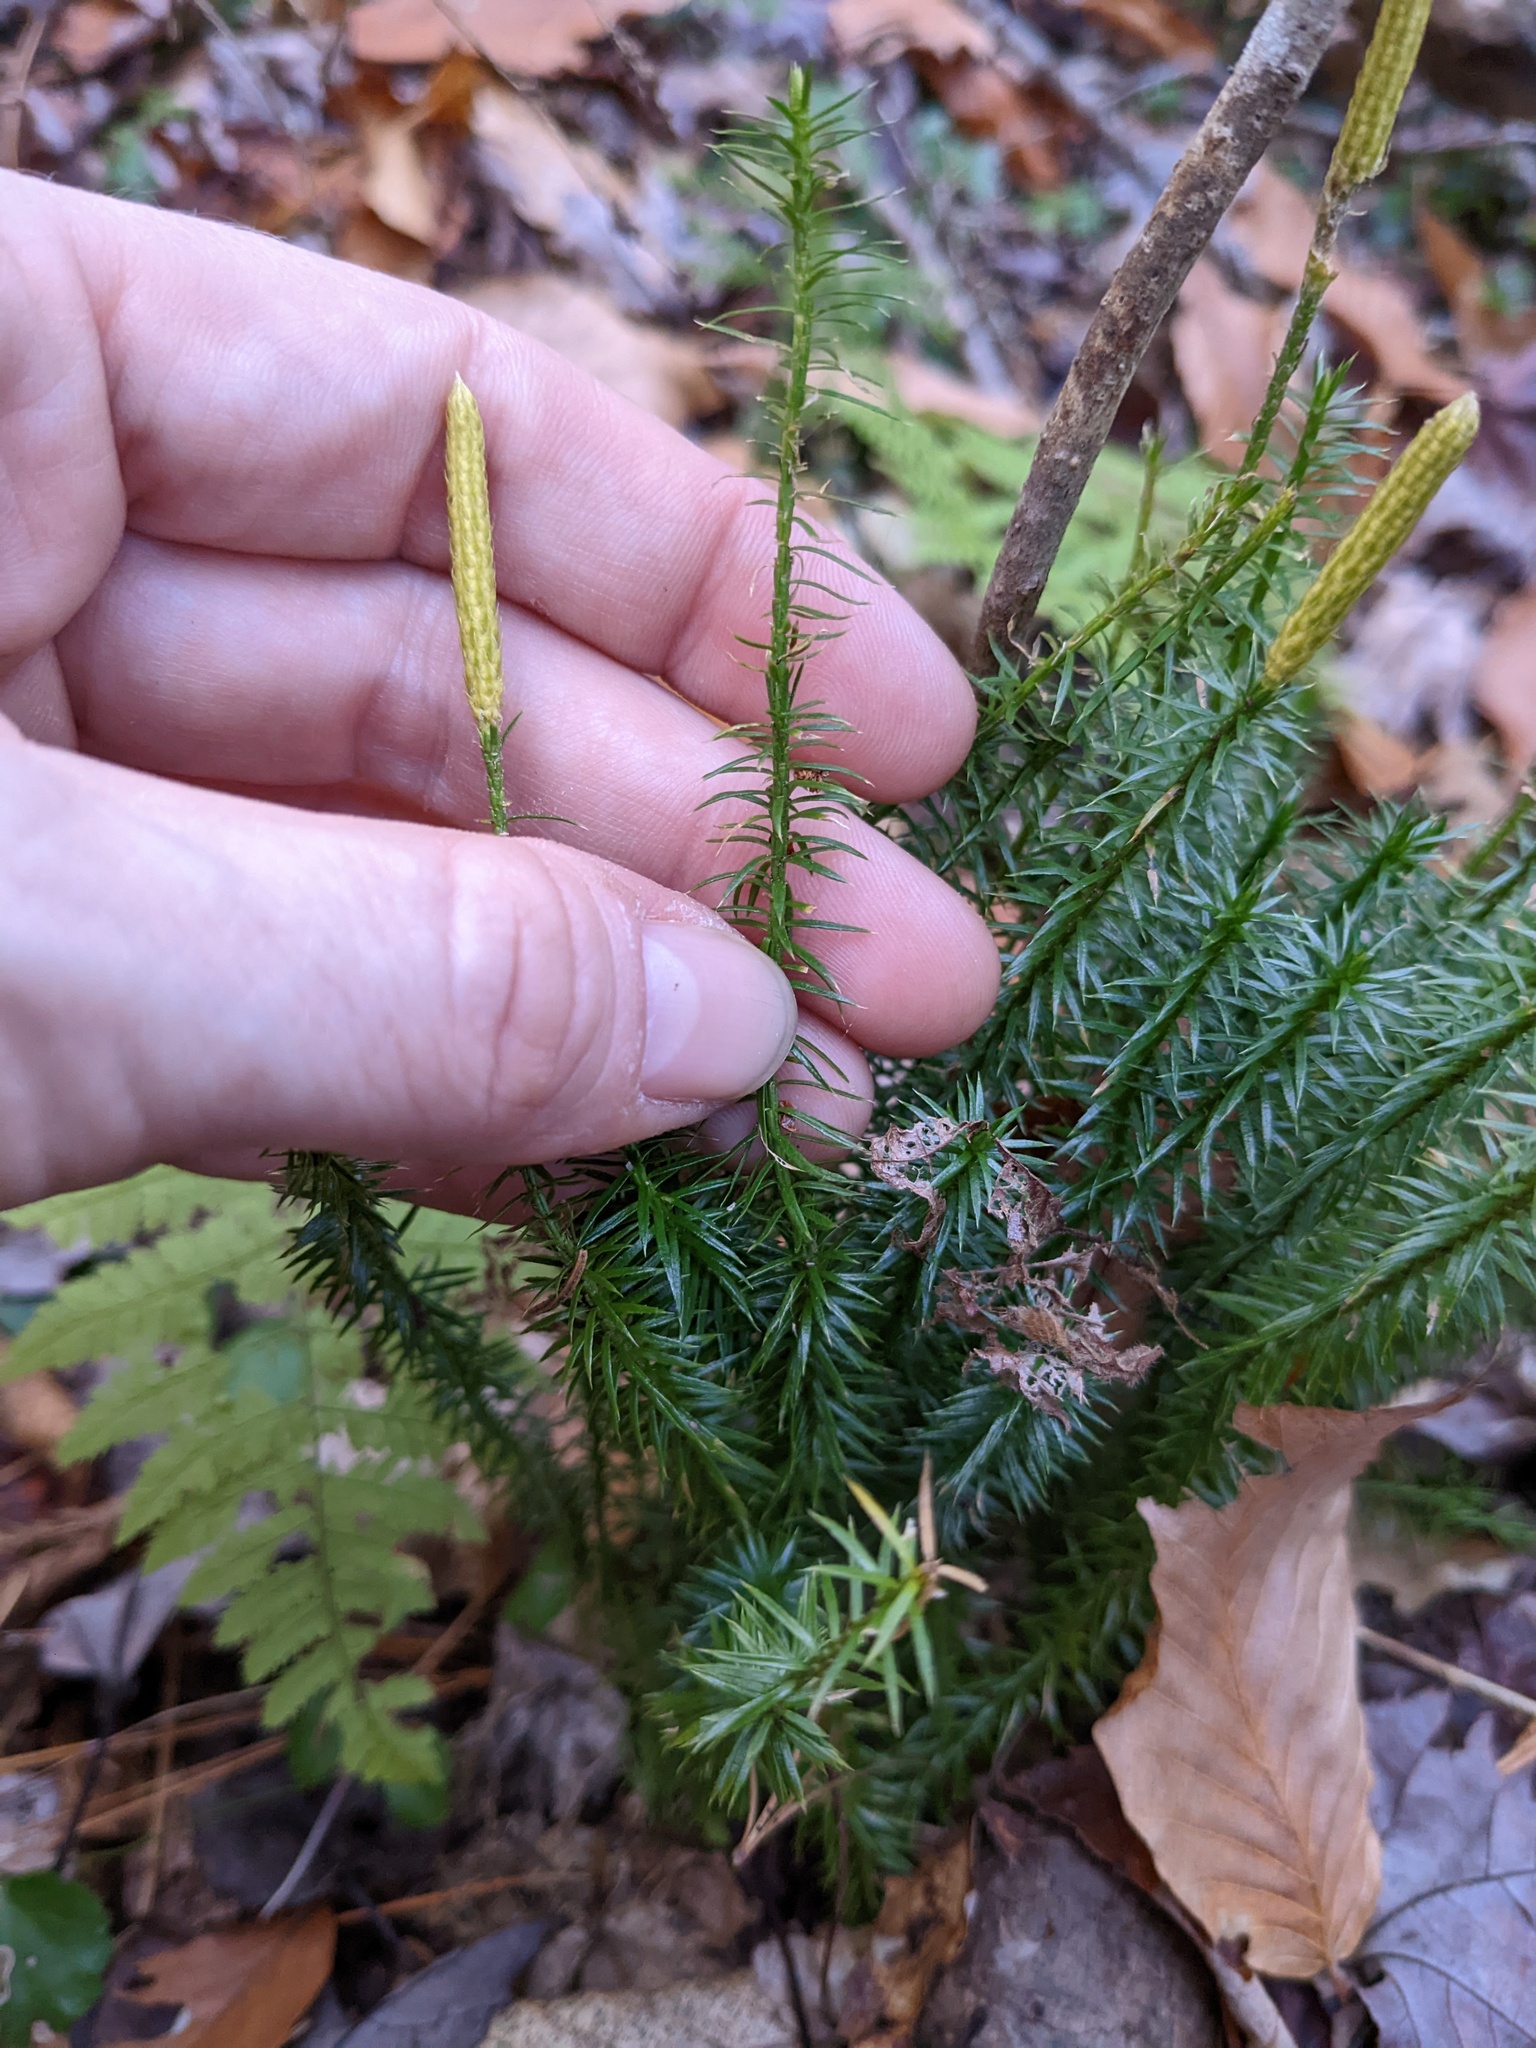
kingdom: Plantae
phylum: Tracheophyta
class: Lycopodiopsida
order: Lycopodiales
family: Lycopodiaceae
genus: Spinulum
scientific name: Spinulum annotinum
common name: Interrupted club-moss
